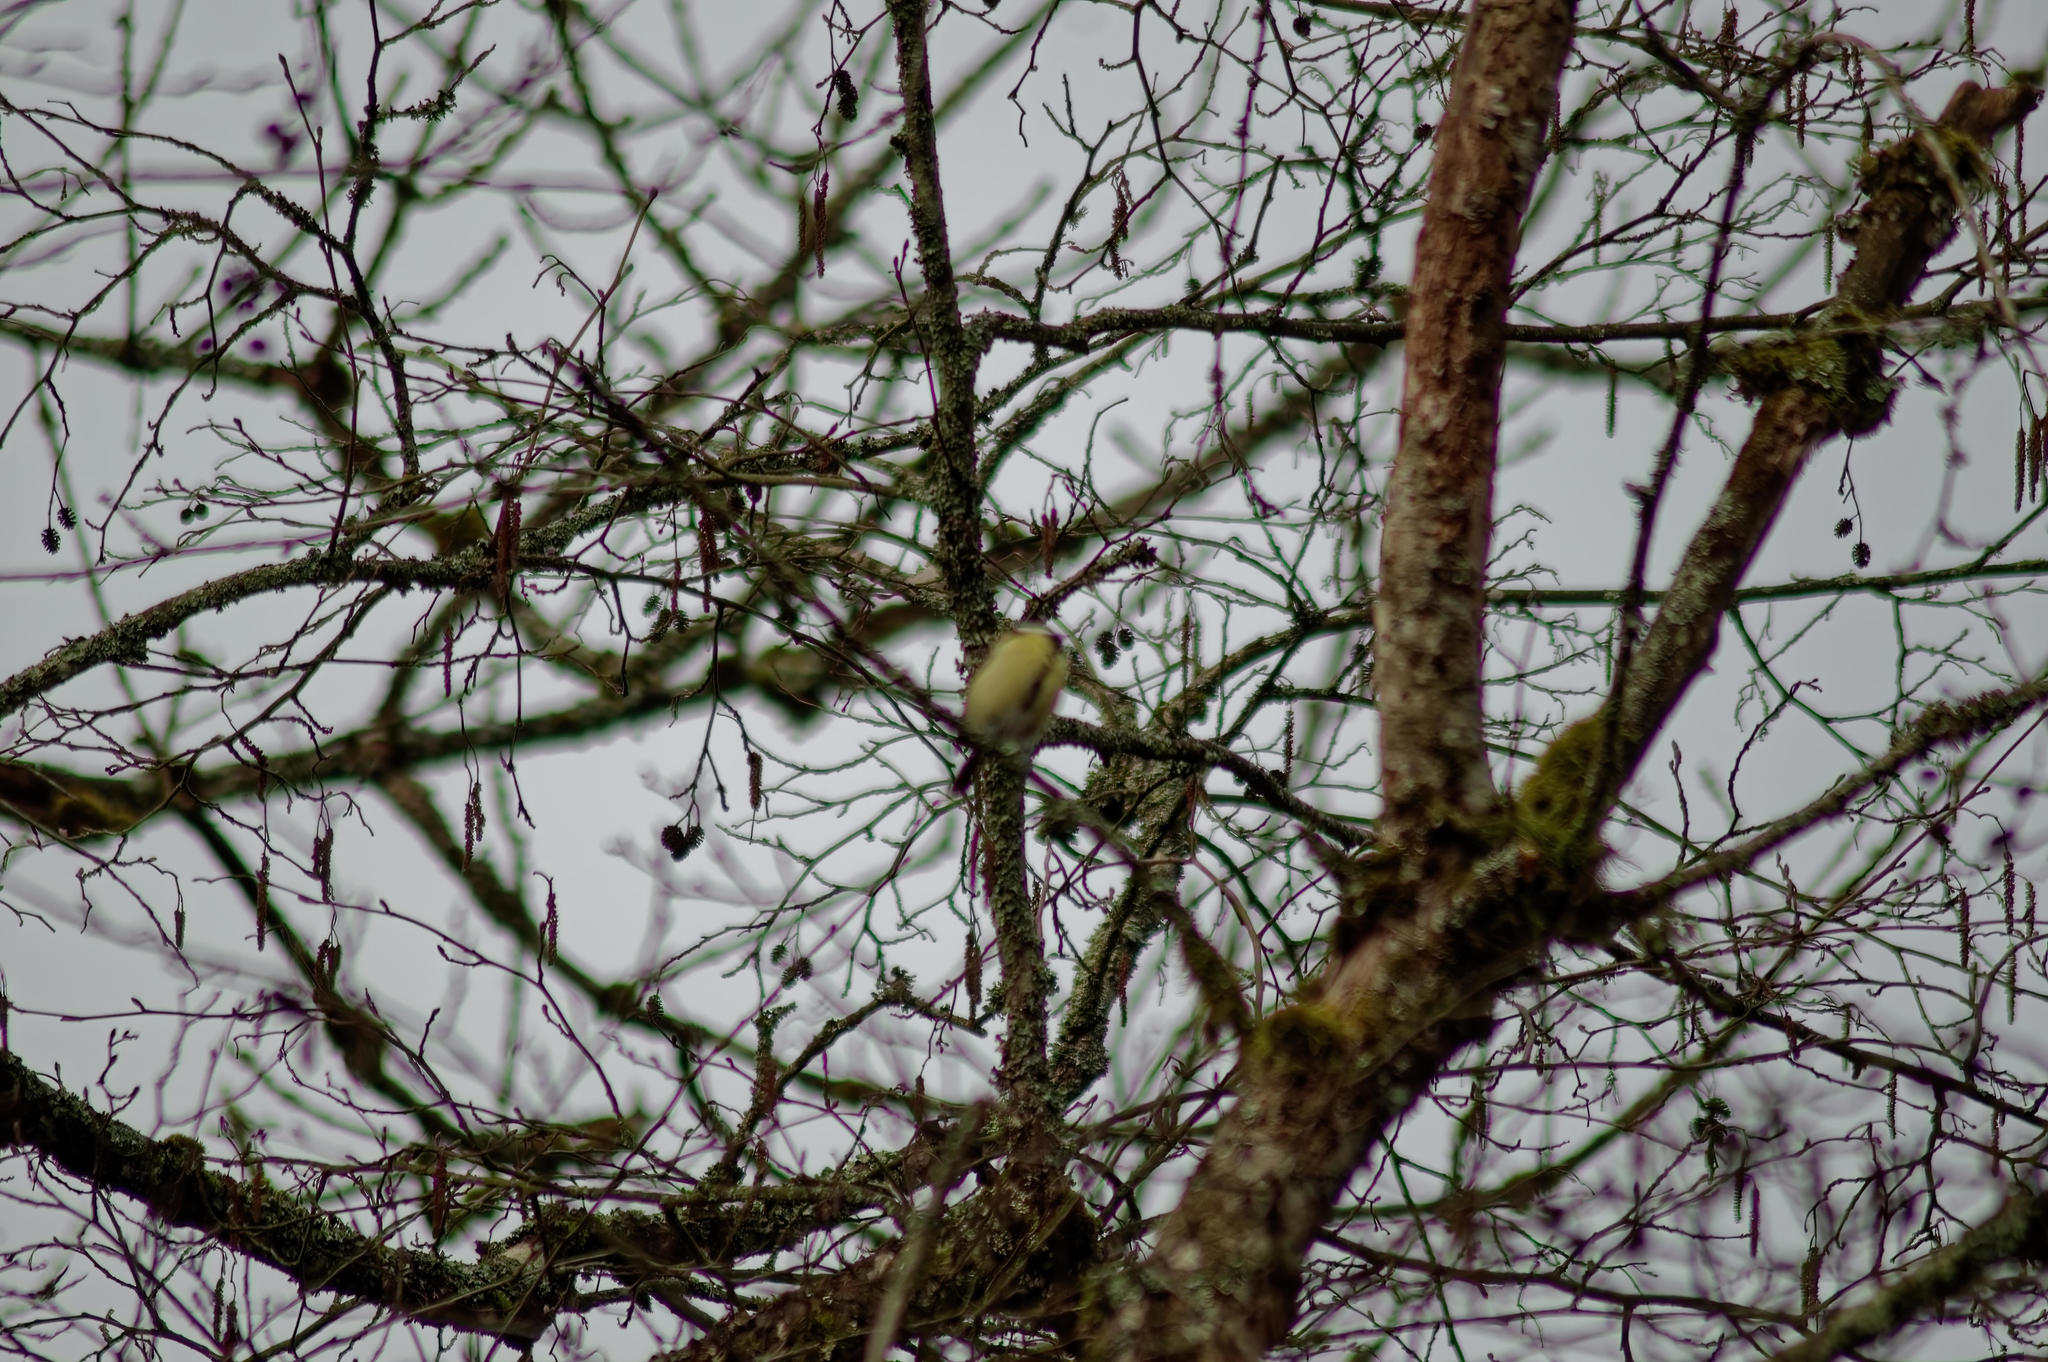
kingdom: Animalia
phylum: Chordata
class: Aves
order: Passeriformes
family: Paridae
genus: Parus
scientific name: Parus major
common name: Great tit
